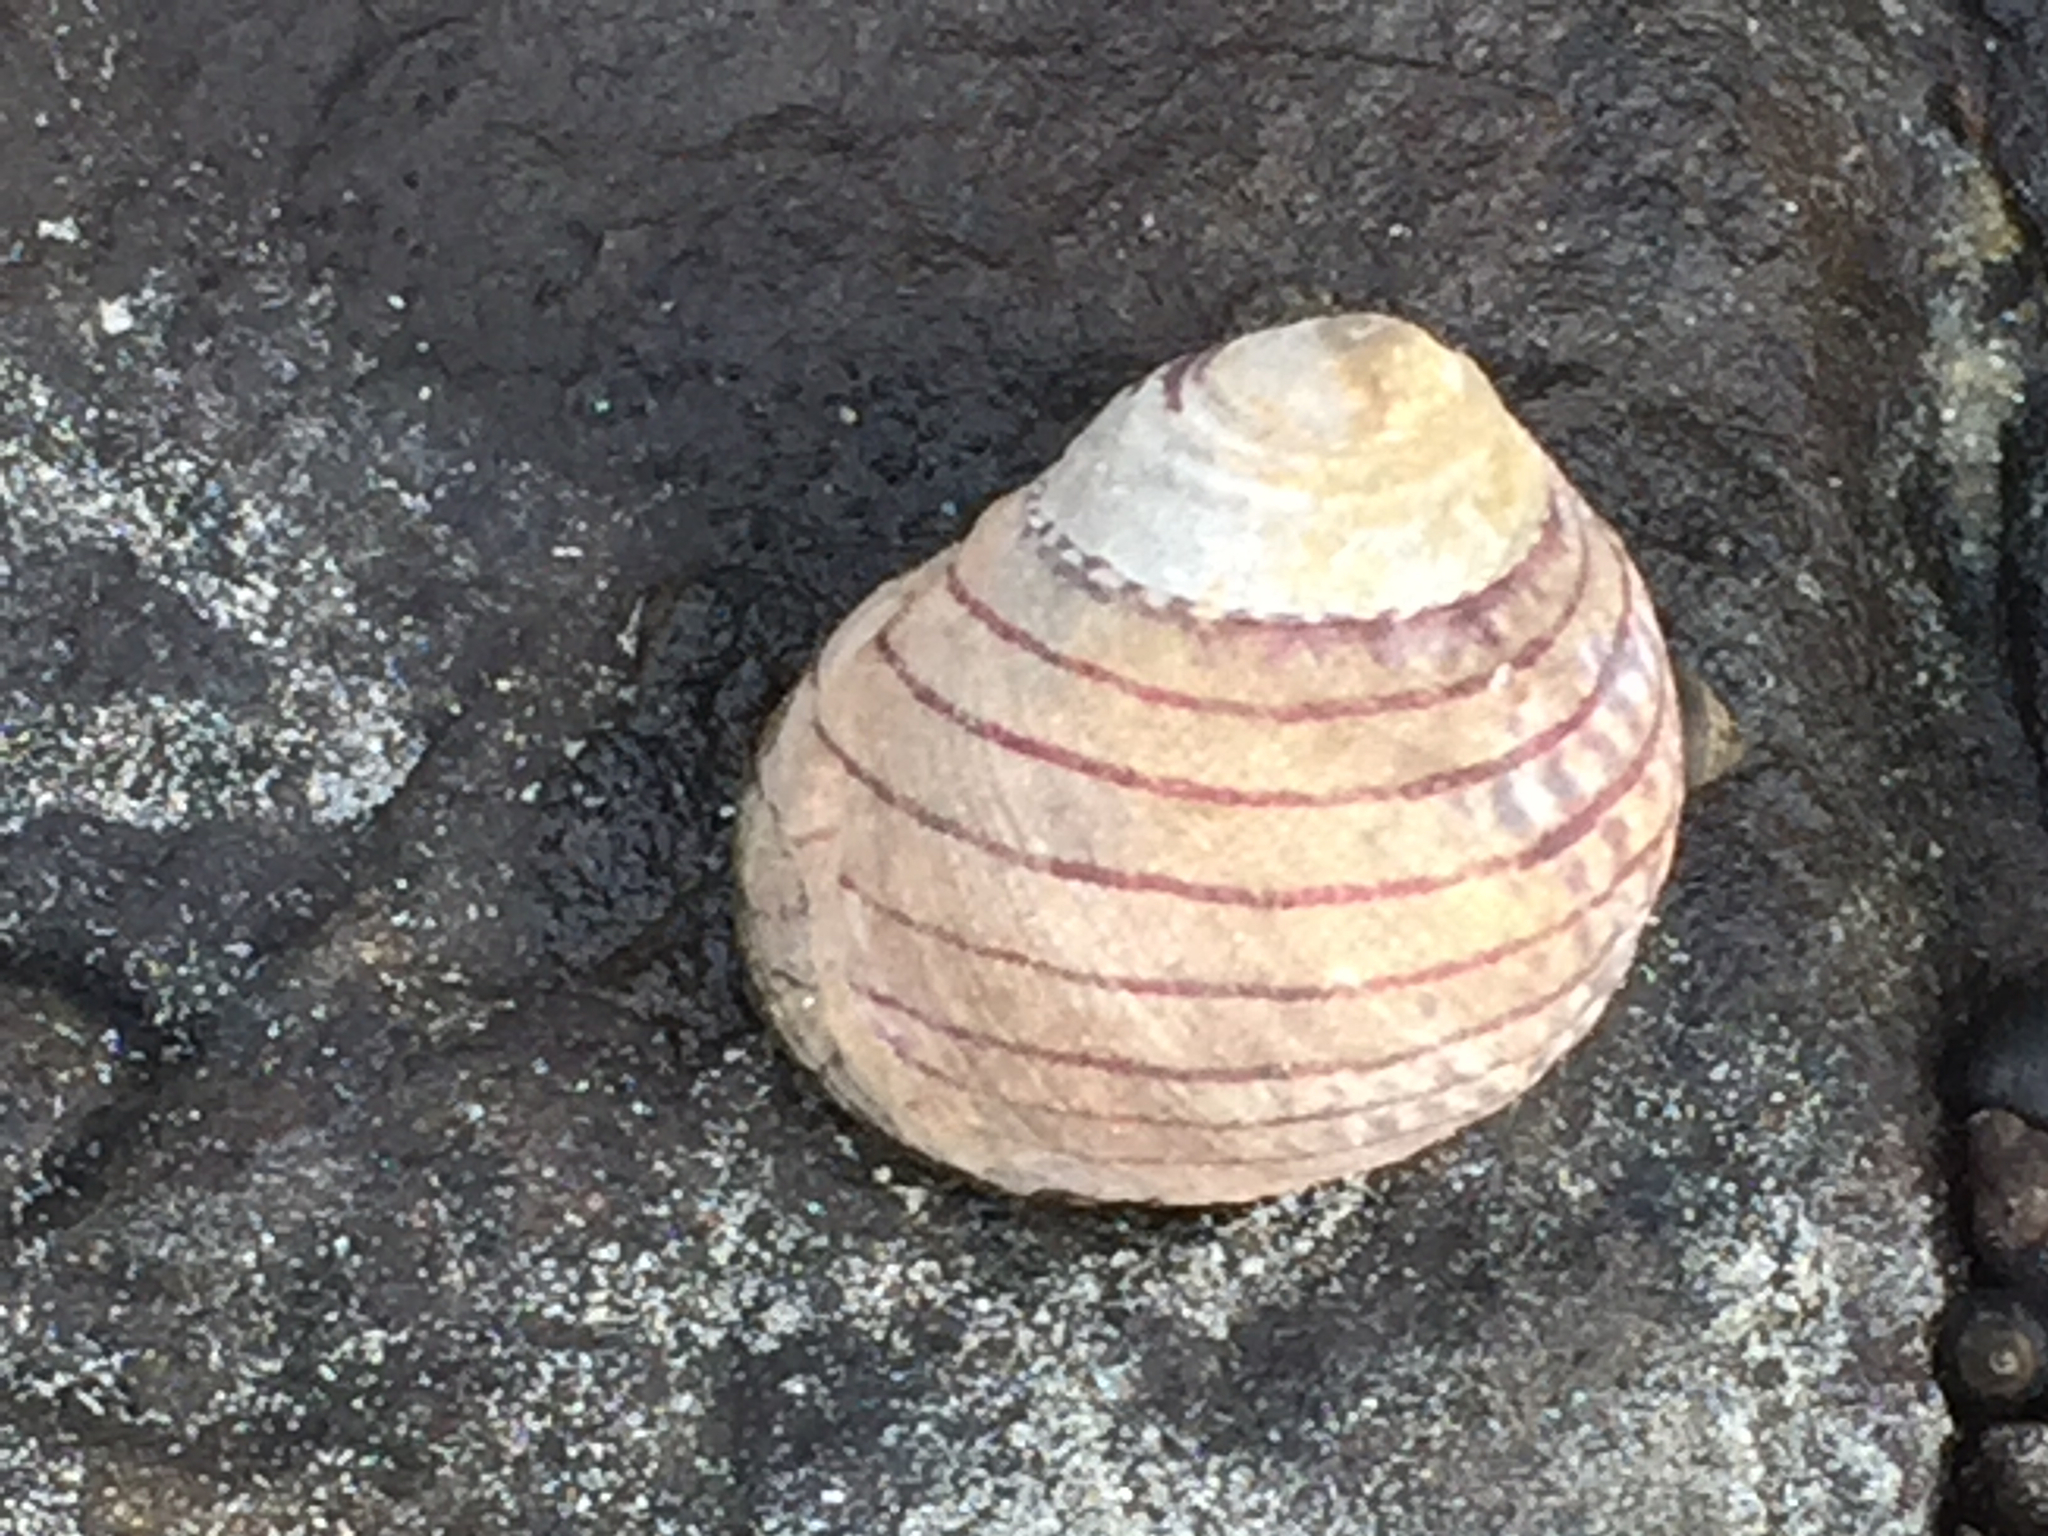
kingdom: Animalia
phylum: Mollusca
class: Gastropoda
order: Trochida
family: Trochidae
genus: Diloma
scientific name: Diloma aethiops
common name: Scorched monodont
